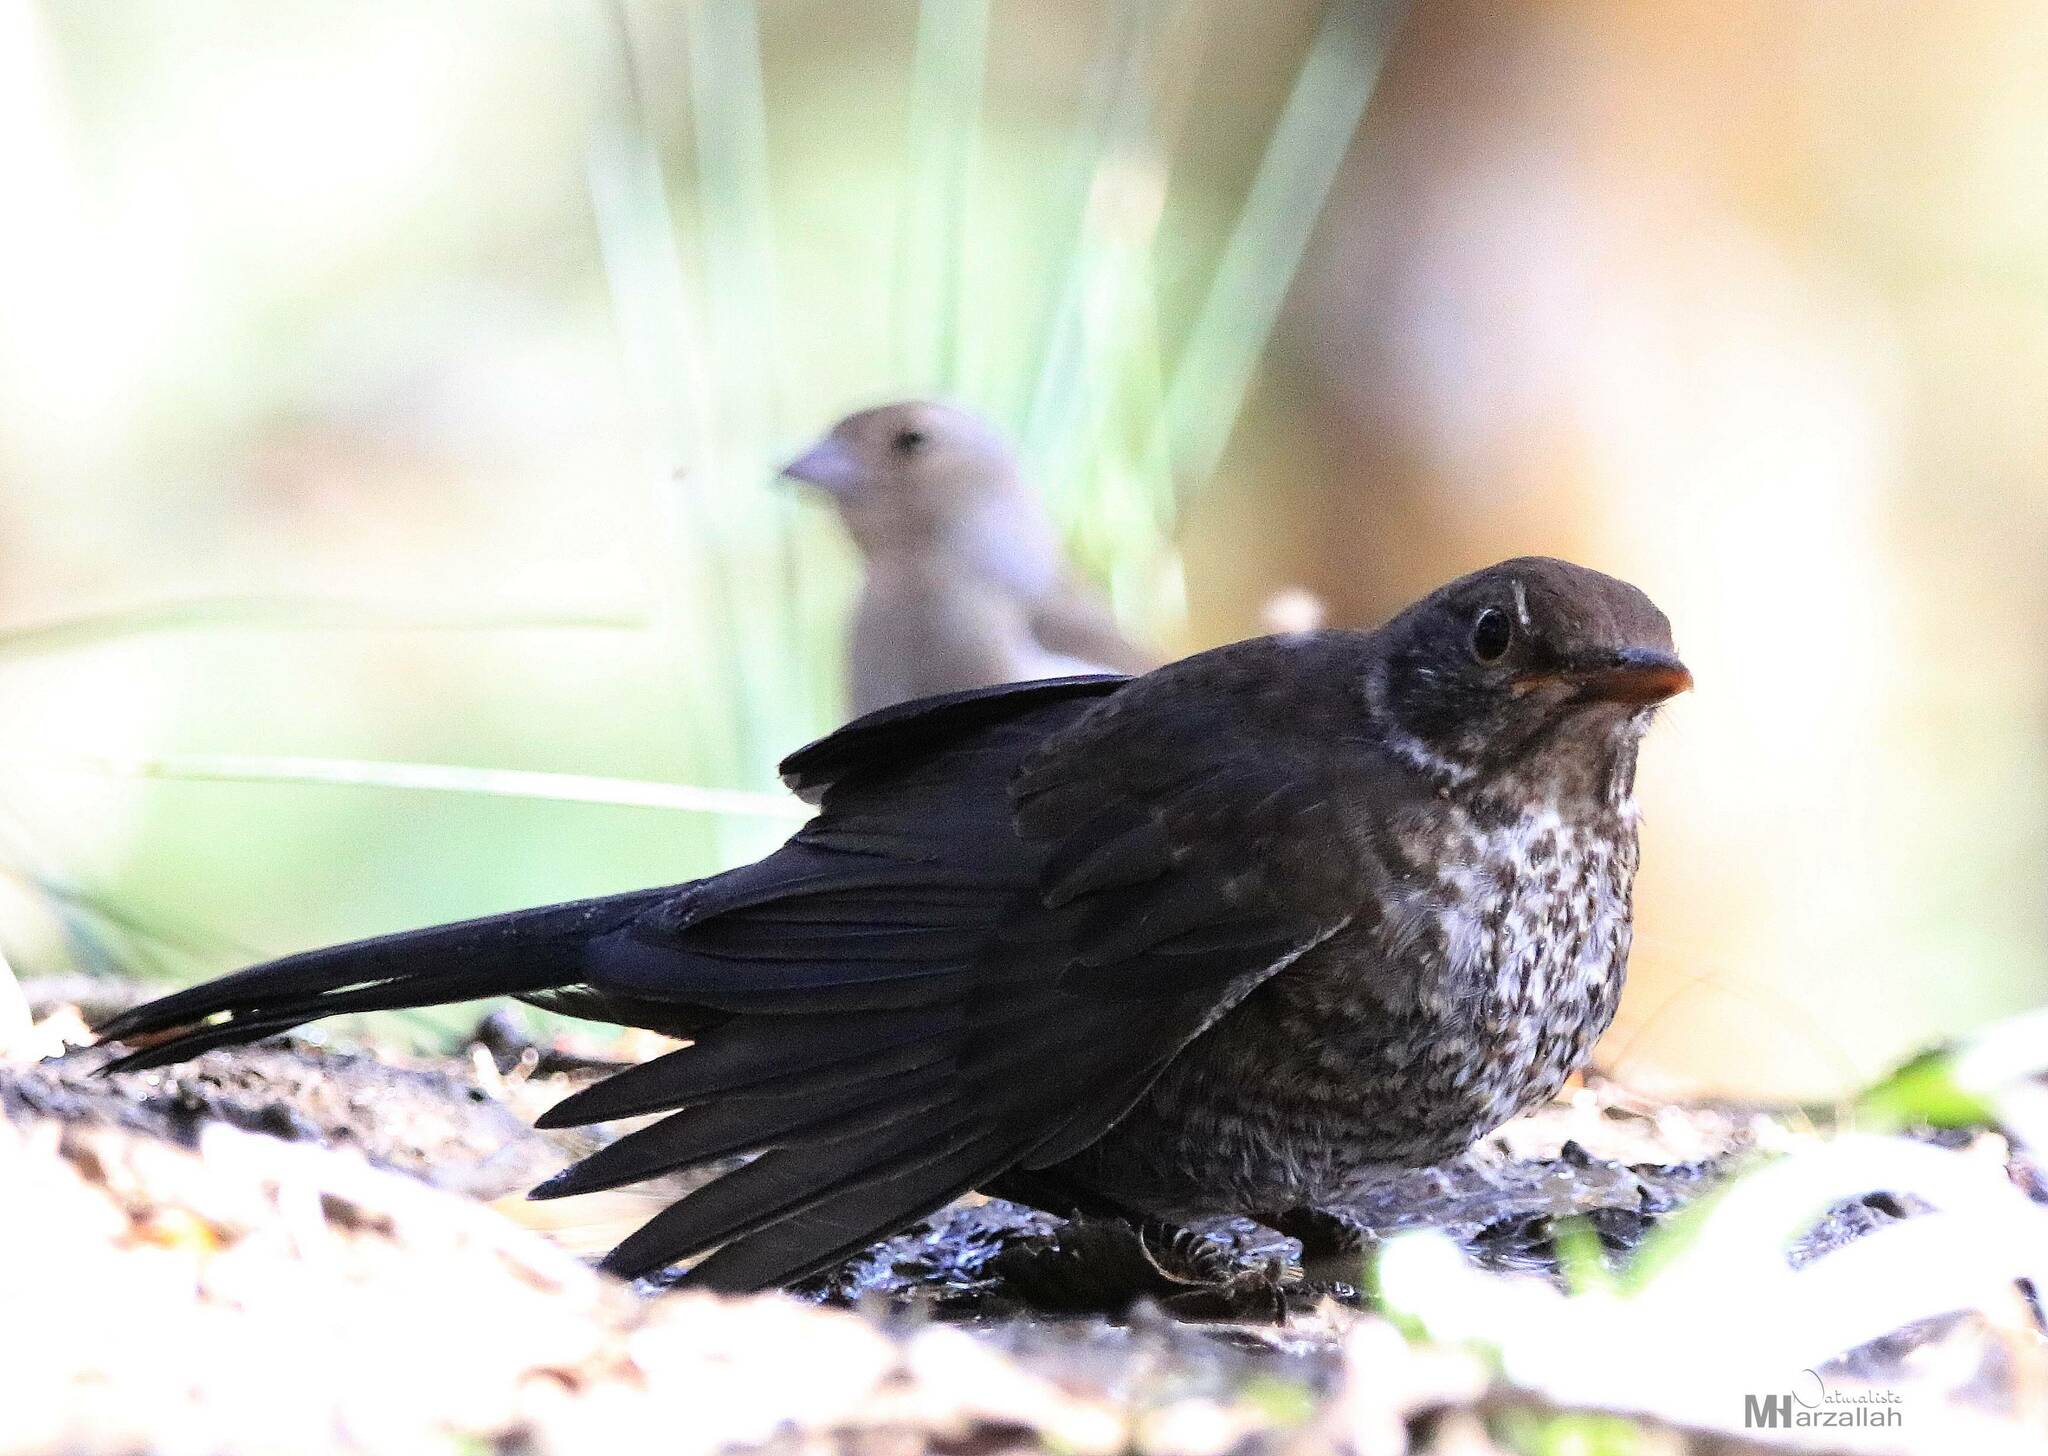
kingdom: Animalia
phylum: Chordata
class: Aves
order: Passeriformes
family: Turdidae
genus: Turdus
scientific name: Turdus merula
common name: Common blackbird
